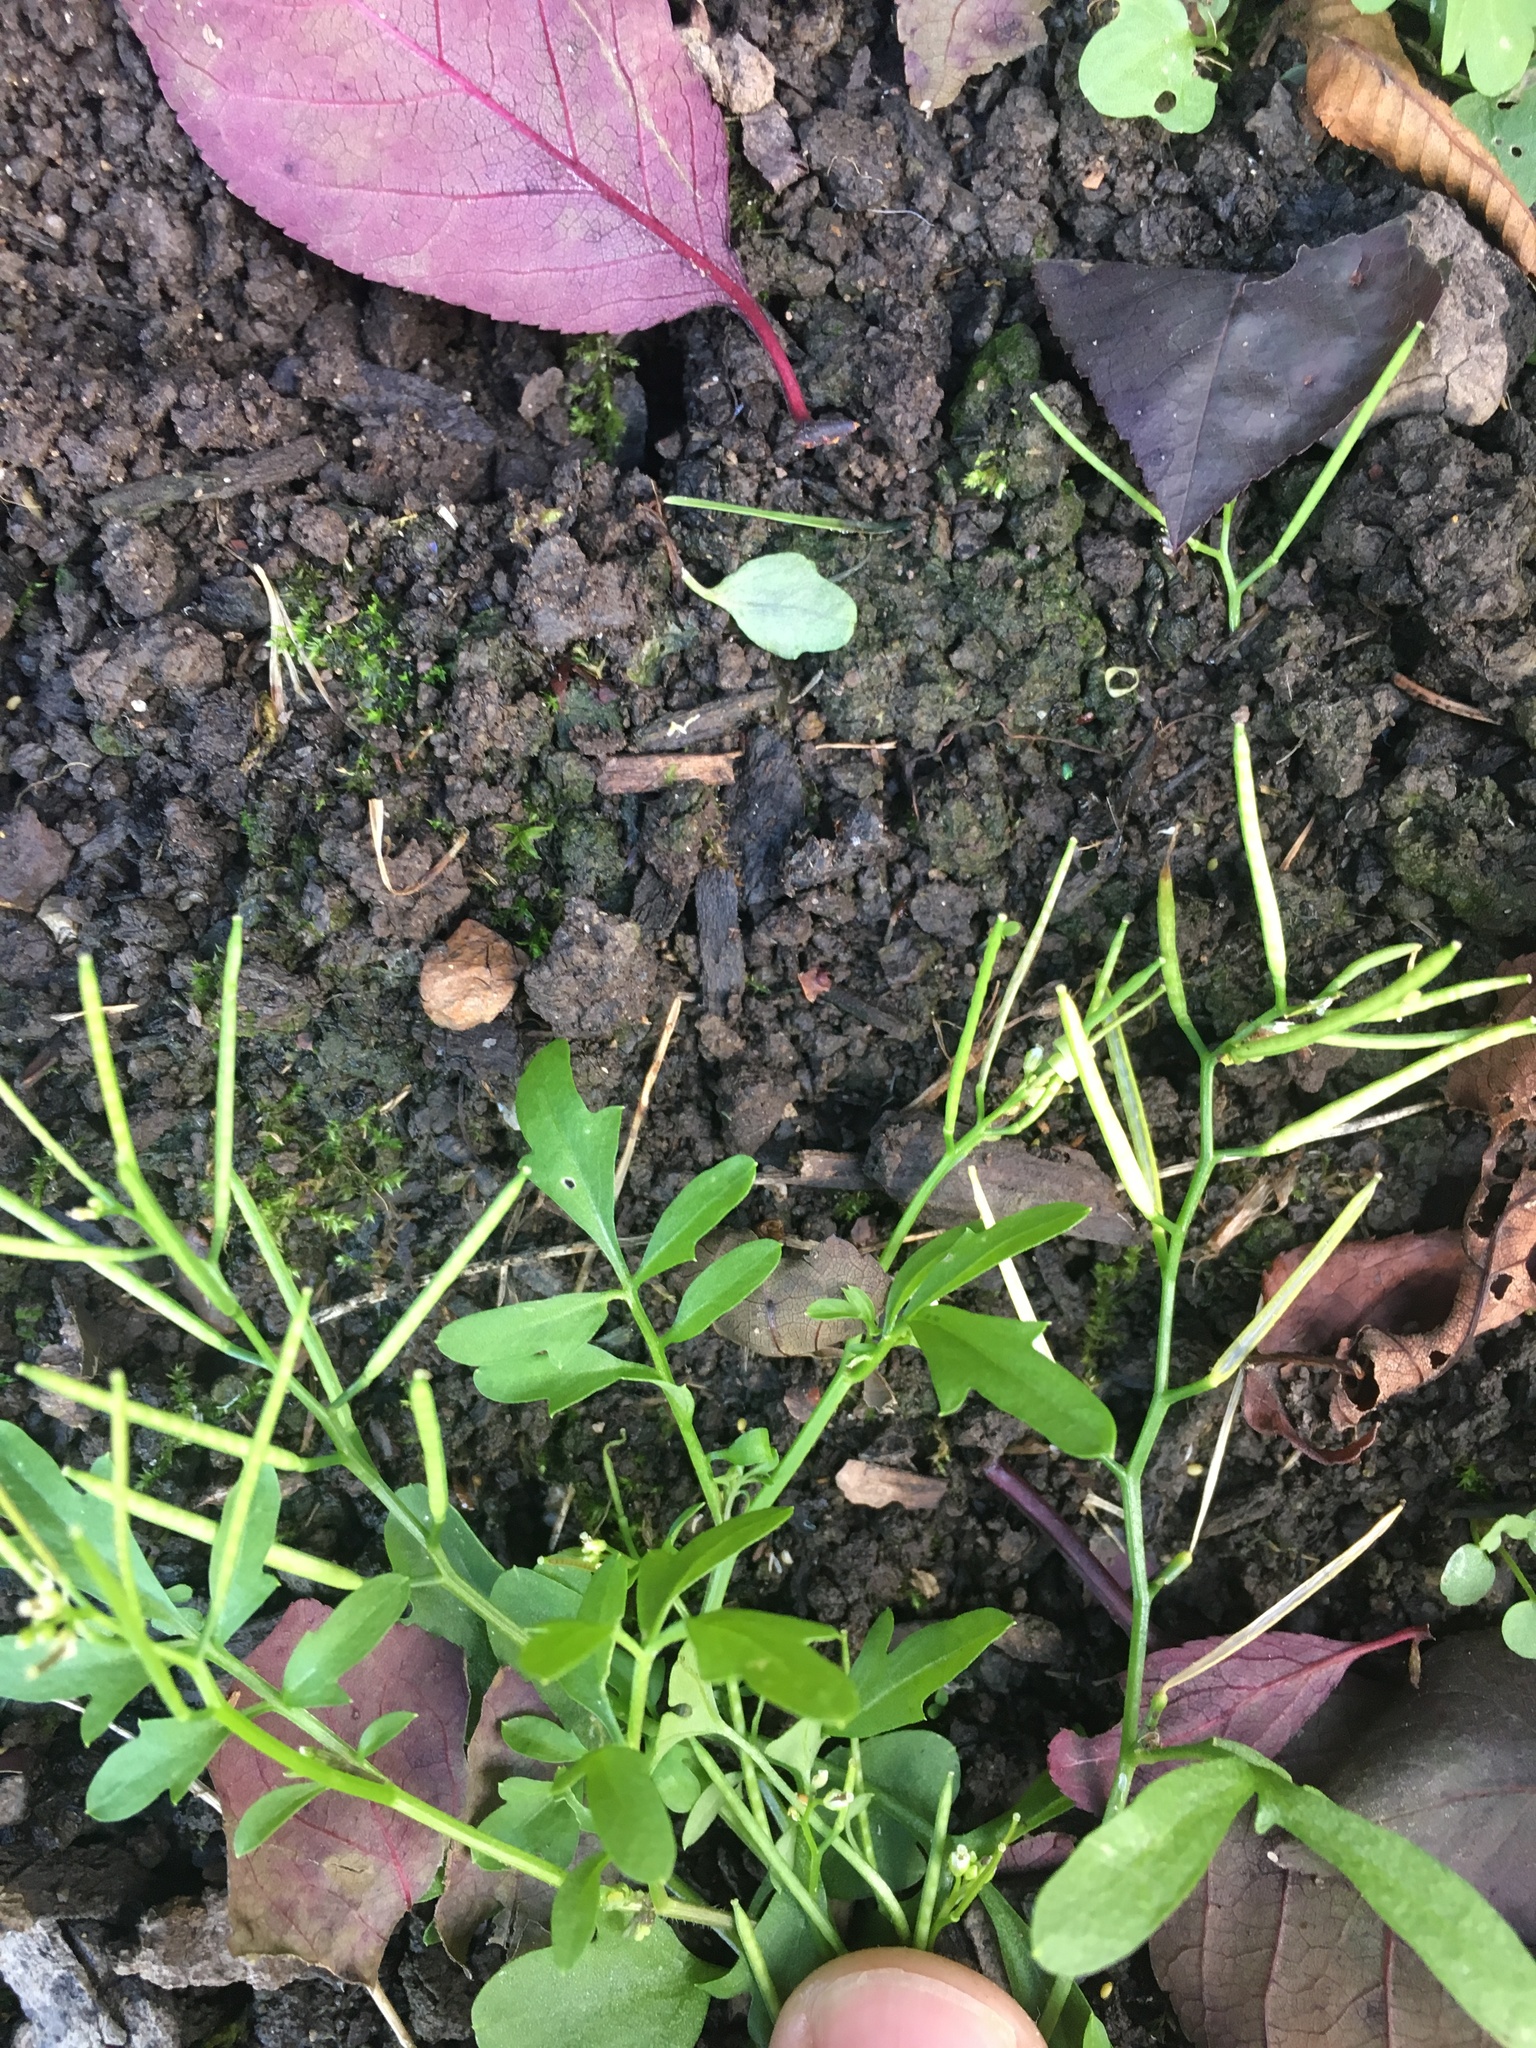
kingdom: Plantae
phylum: Tracheophyta
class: Magnoliopsida
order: Brassicales
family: Brassicaceae
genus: Cardamine
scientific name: Cardamine occulta
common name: Asian wavy bittercress
